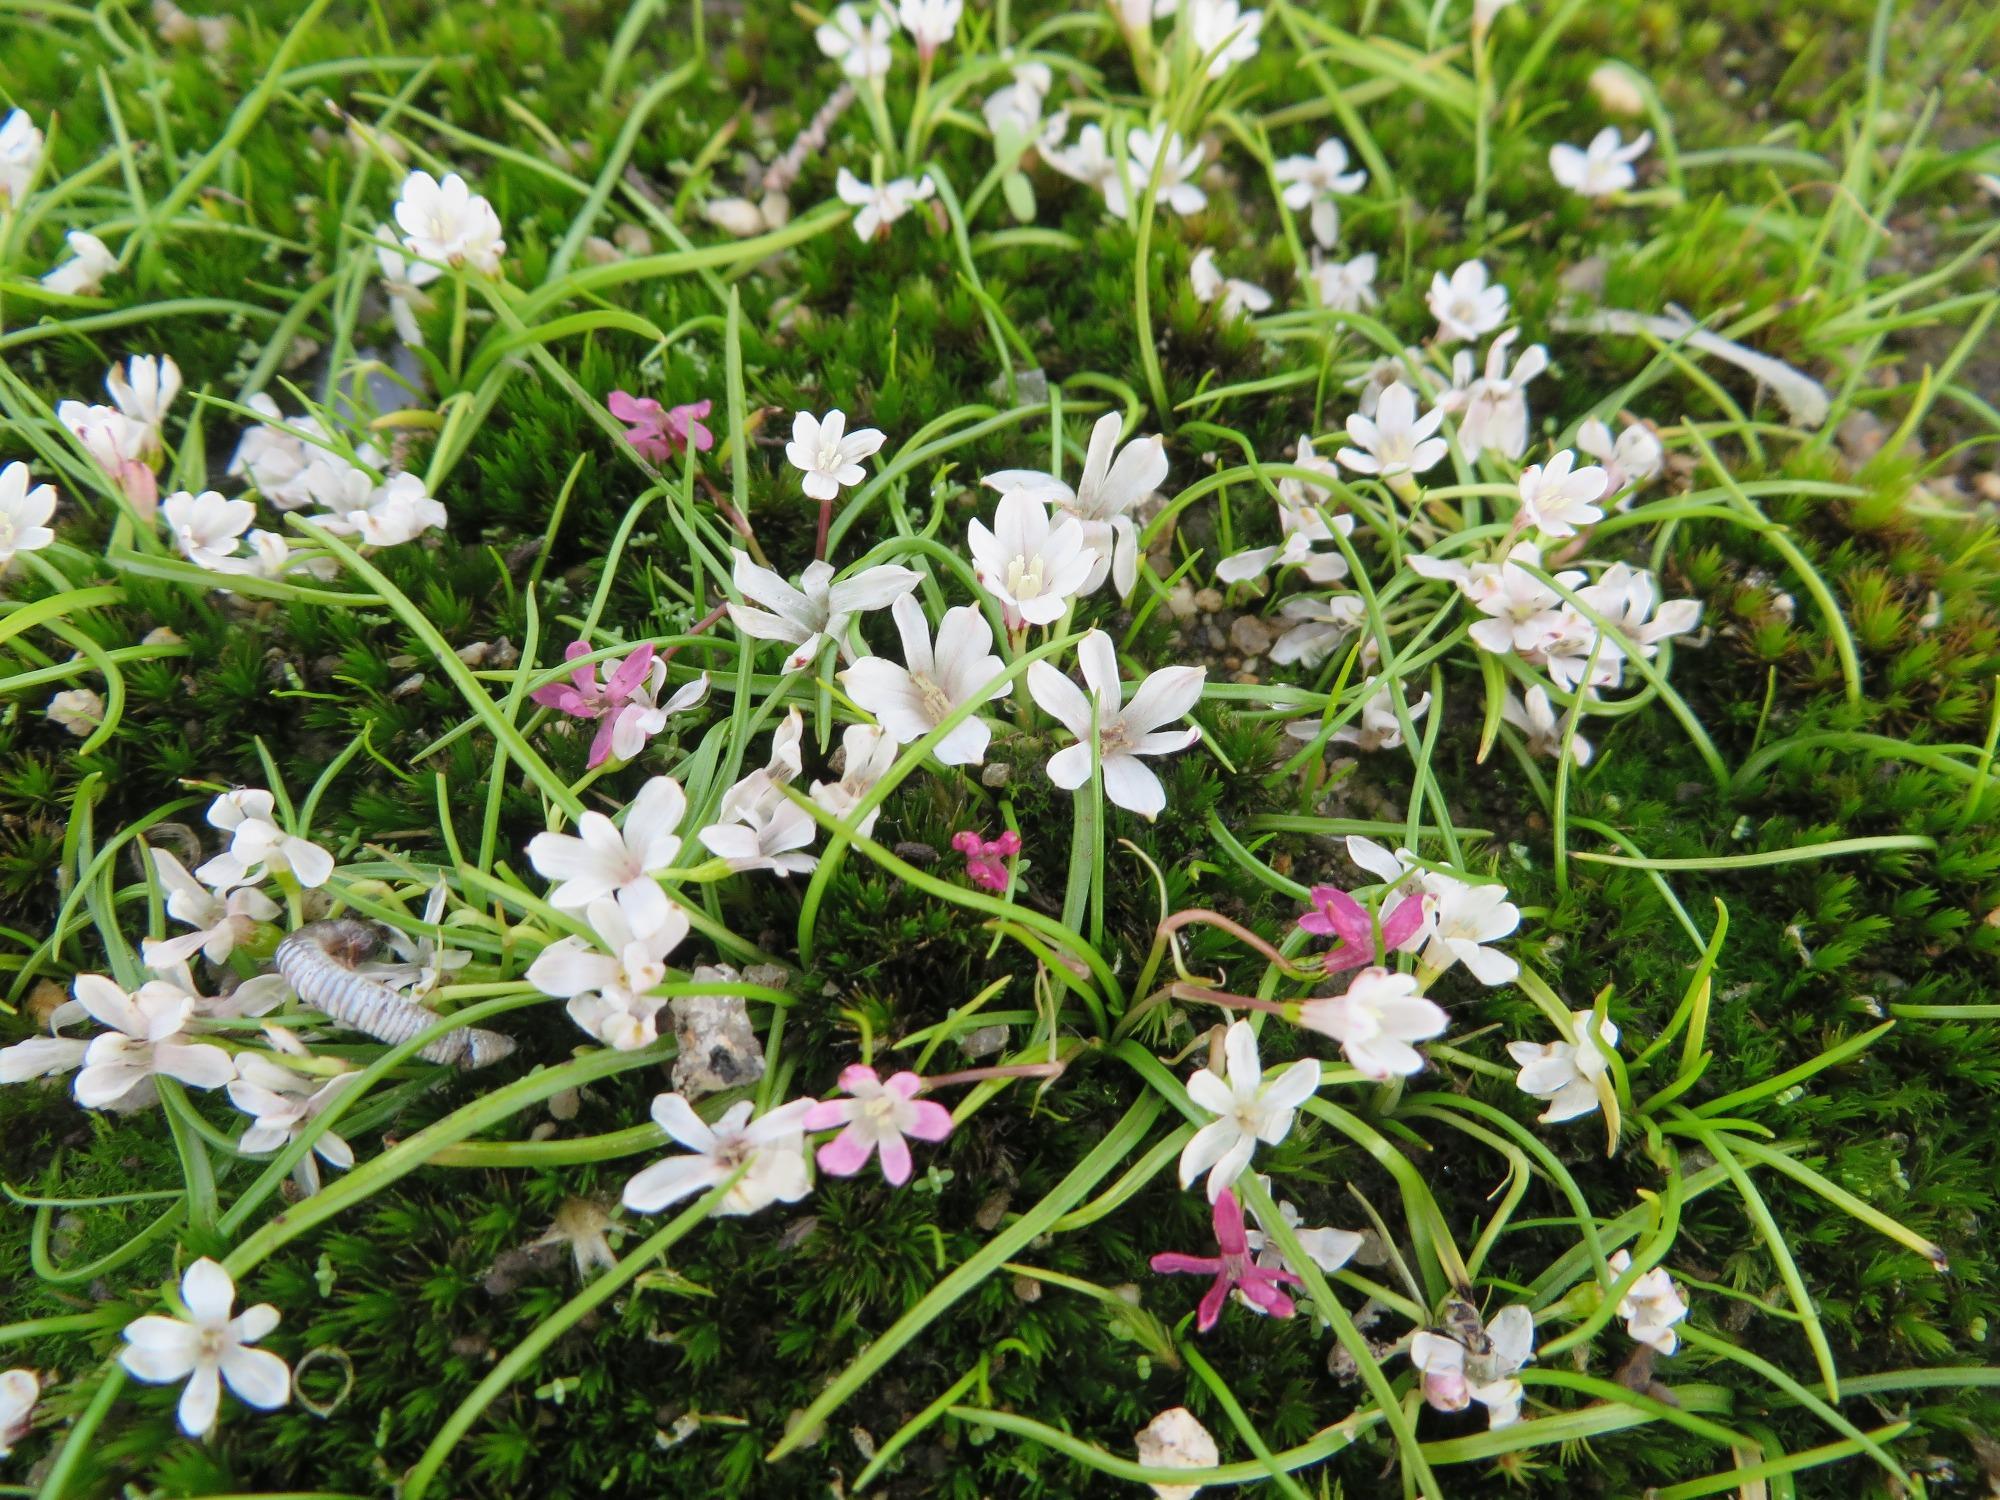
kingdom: Plantae
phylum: Tracheophyta
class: Liliopsida
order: Asparagales
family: Hypoxidaceae
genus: Pauridia
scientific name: Pauridia minuta
